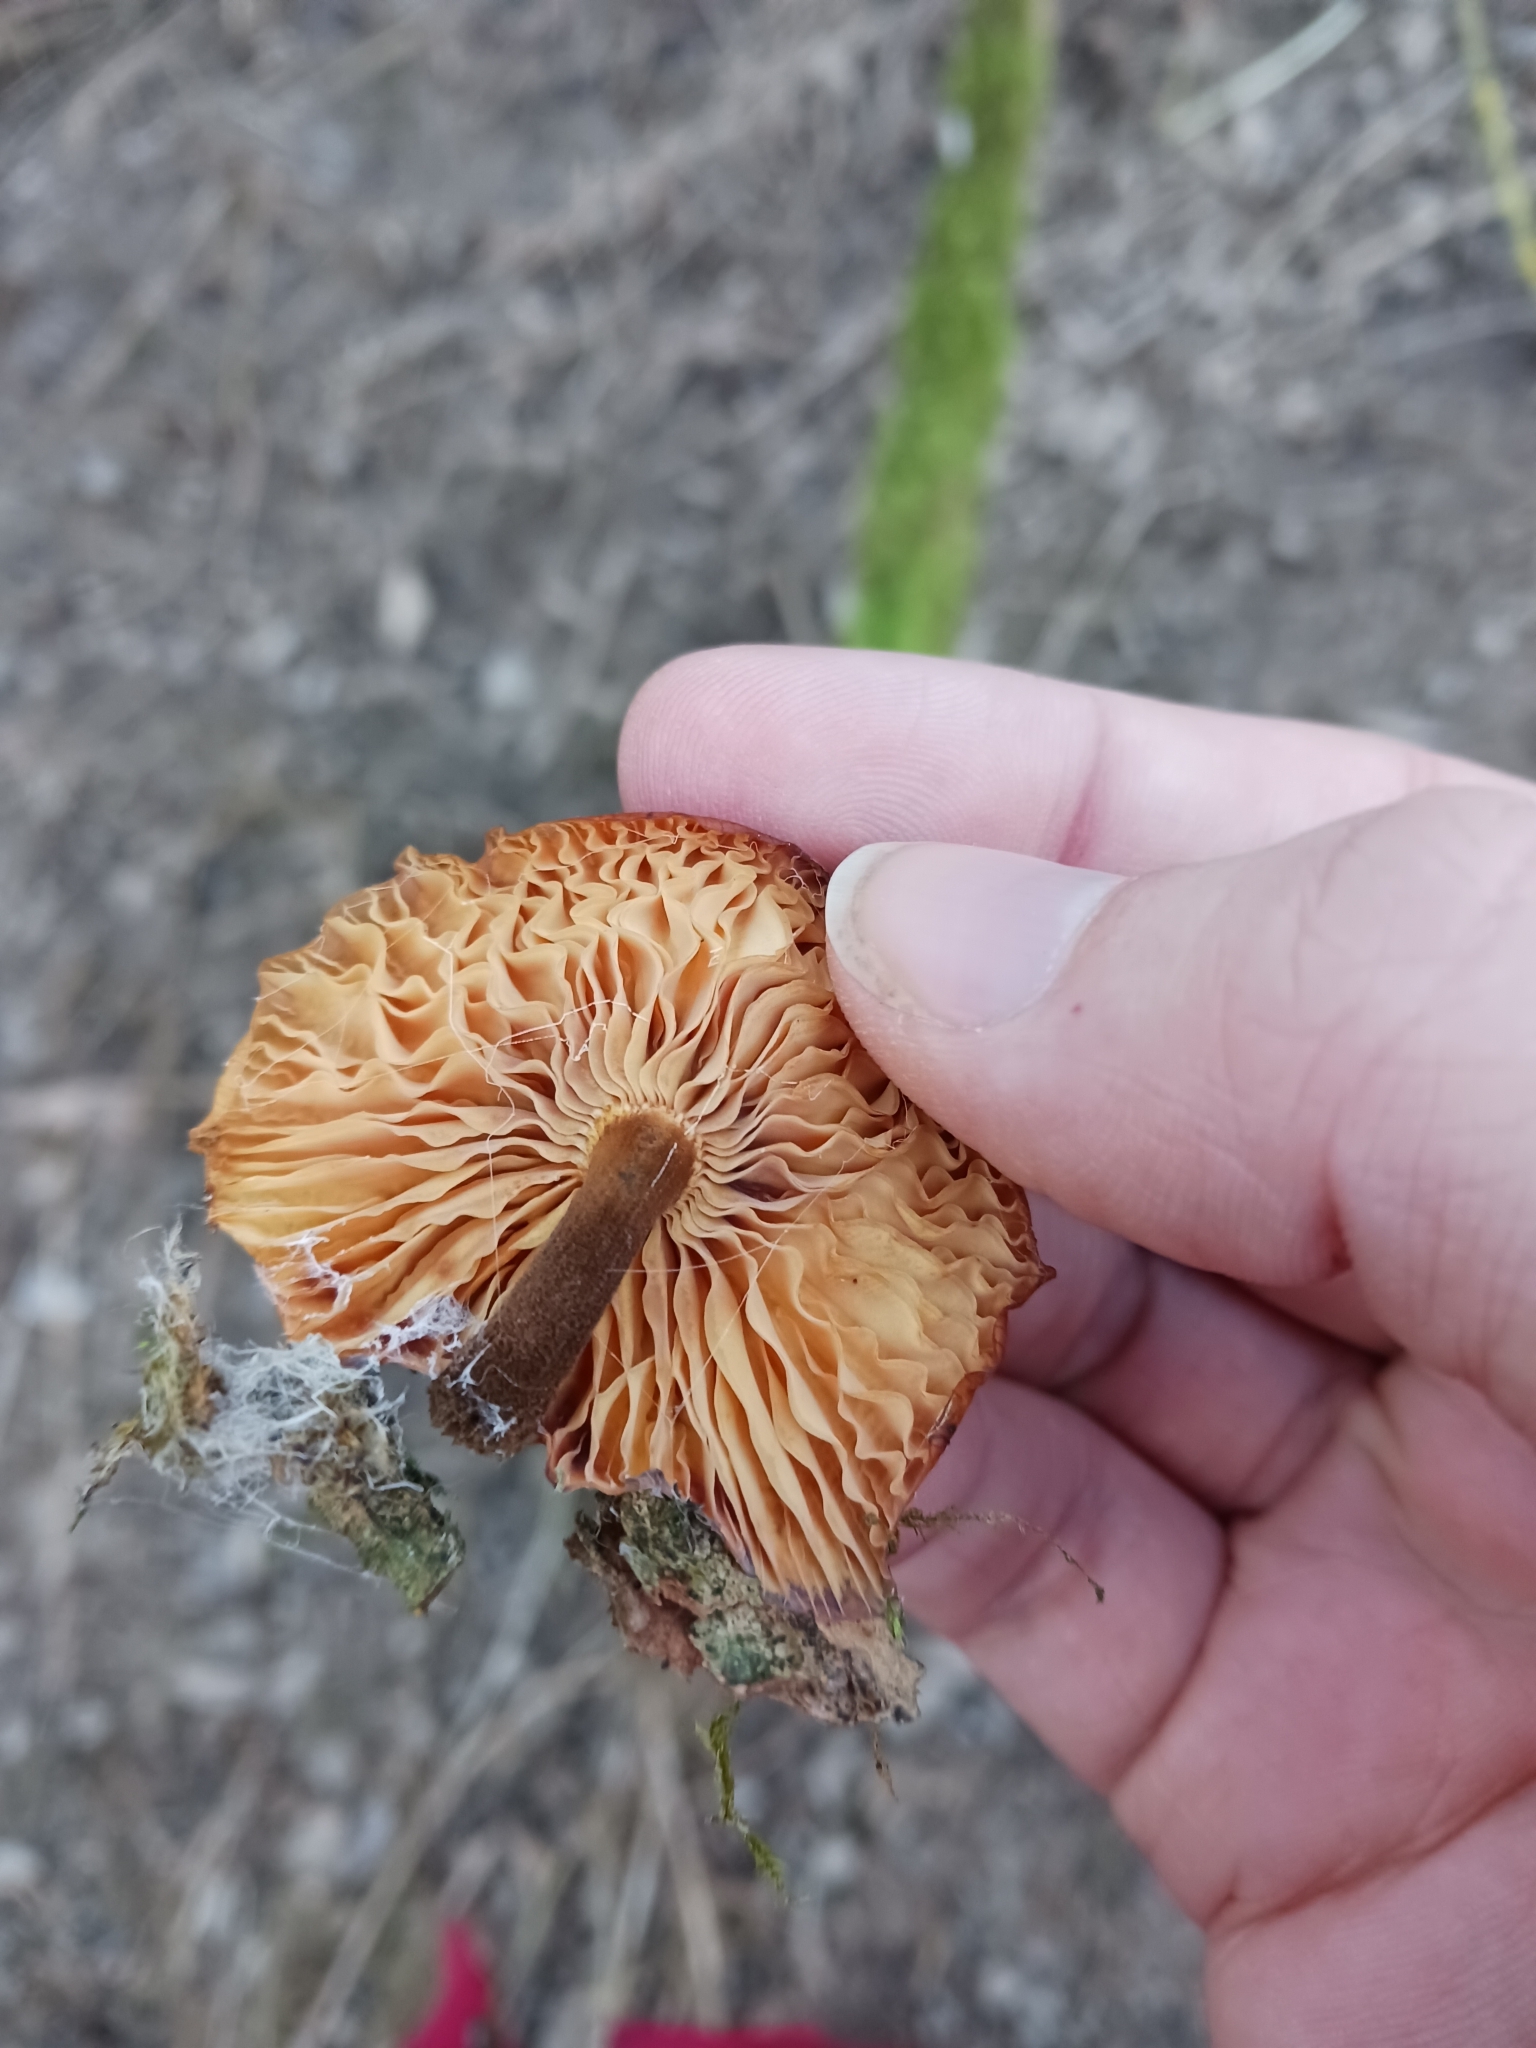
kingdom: Fungi
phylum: Basidiomycota
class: Agaricomycetes
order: Agaricales
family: Physalacriaceae
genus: Flammulina
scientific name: Flammulina
